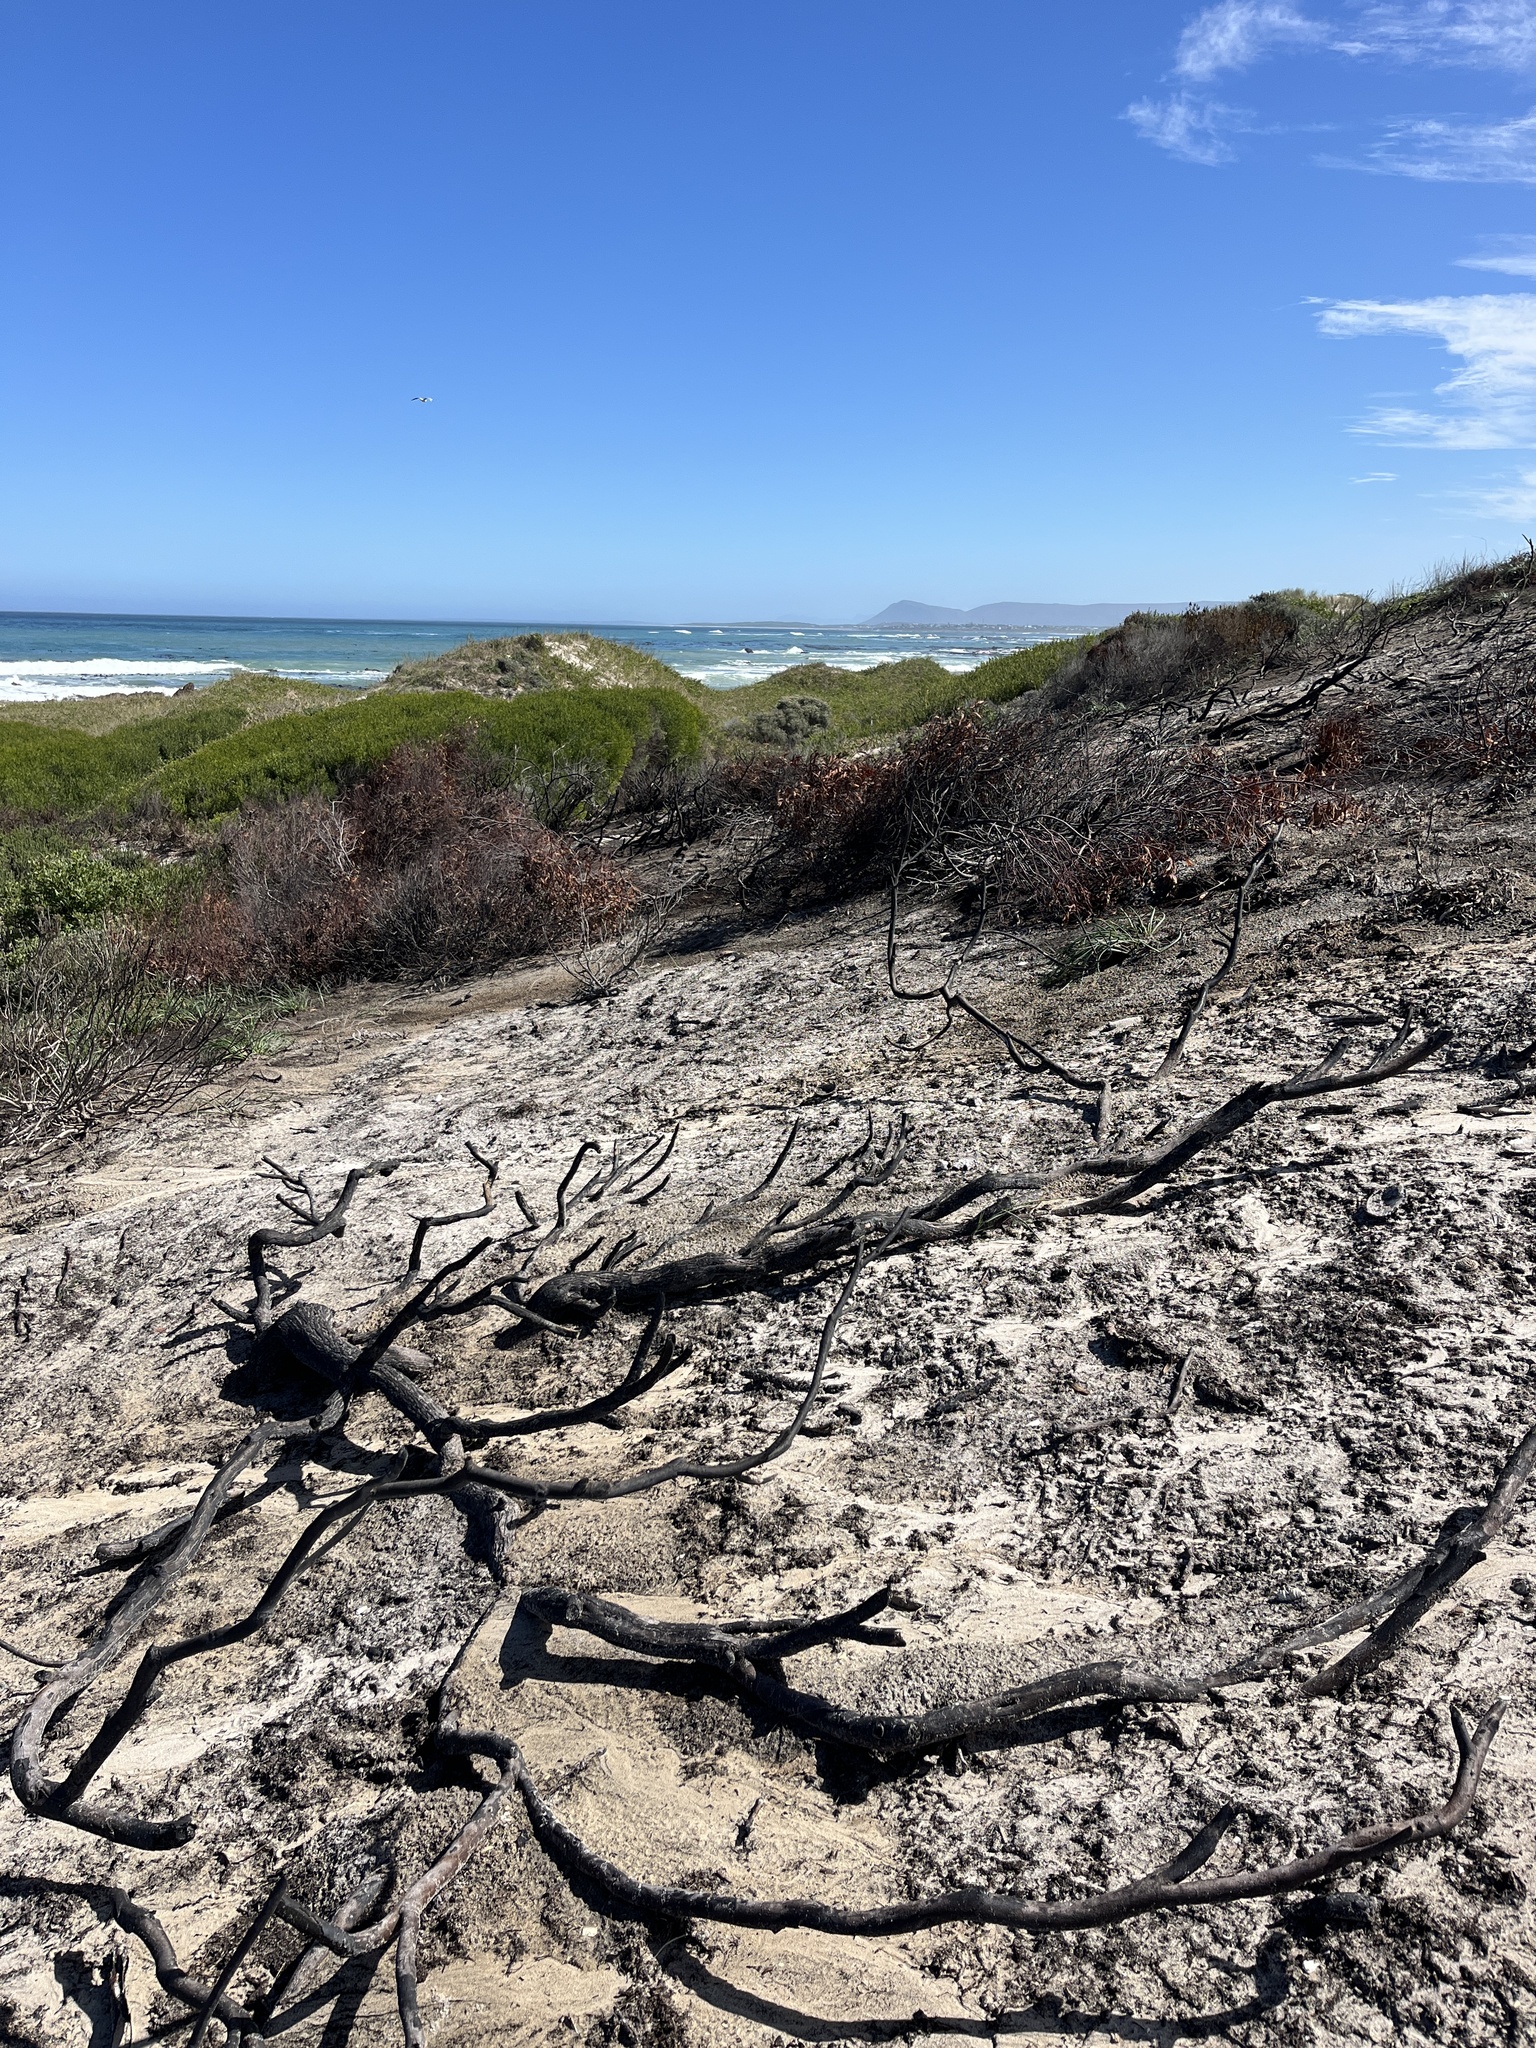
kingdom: Plantae
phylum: Tracheophyta
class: Magnoliopsida
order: Fabales
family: Fabaceae
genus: Acacia
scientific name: Acacia cyclops
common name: Coastal wattle
